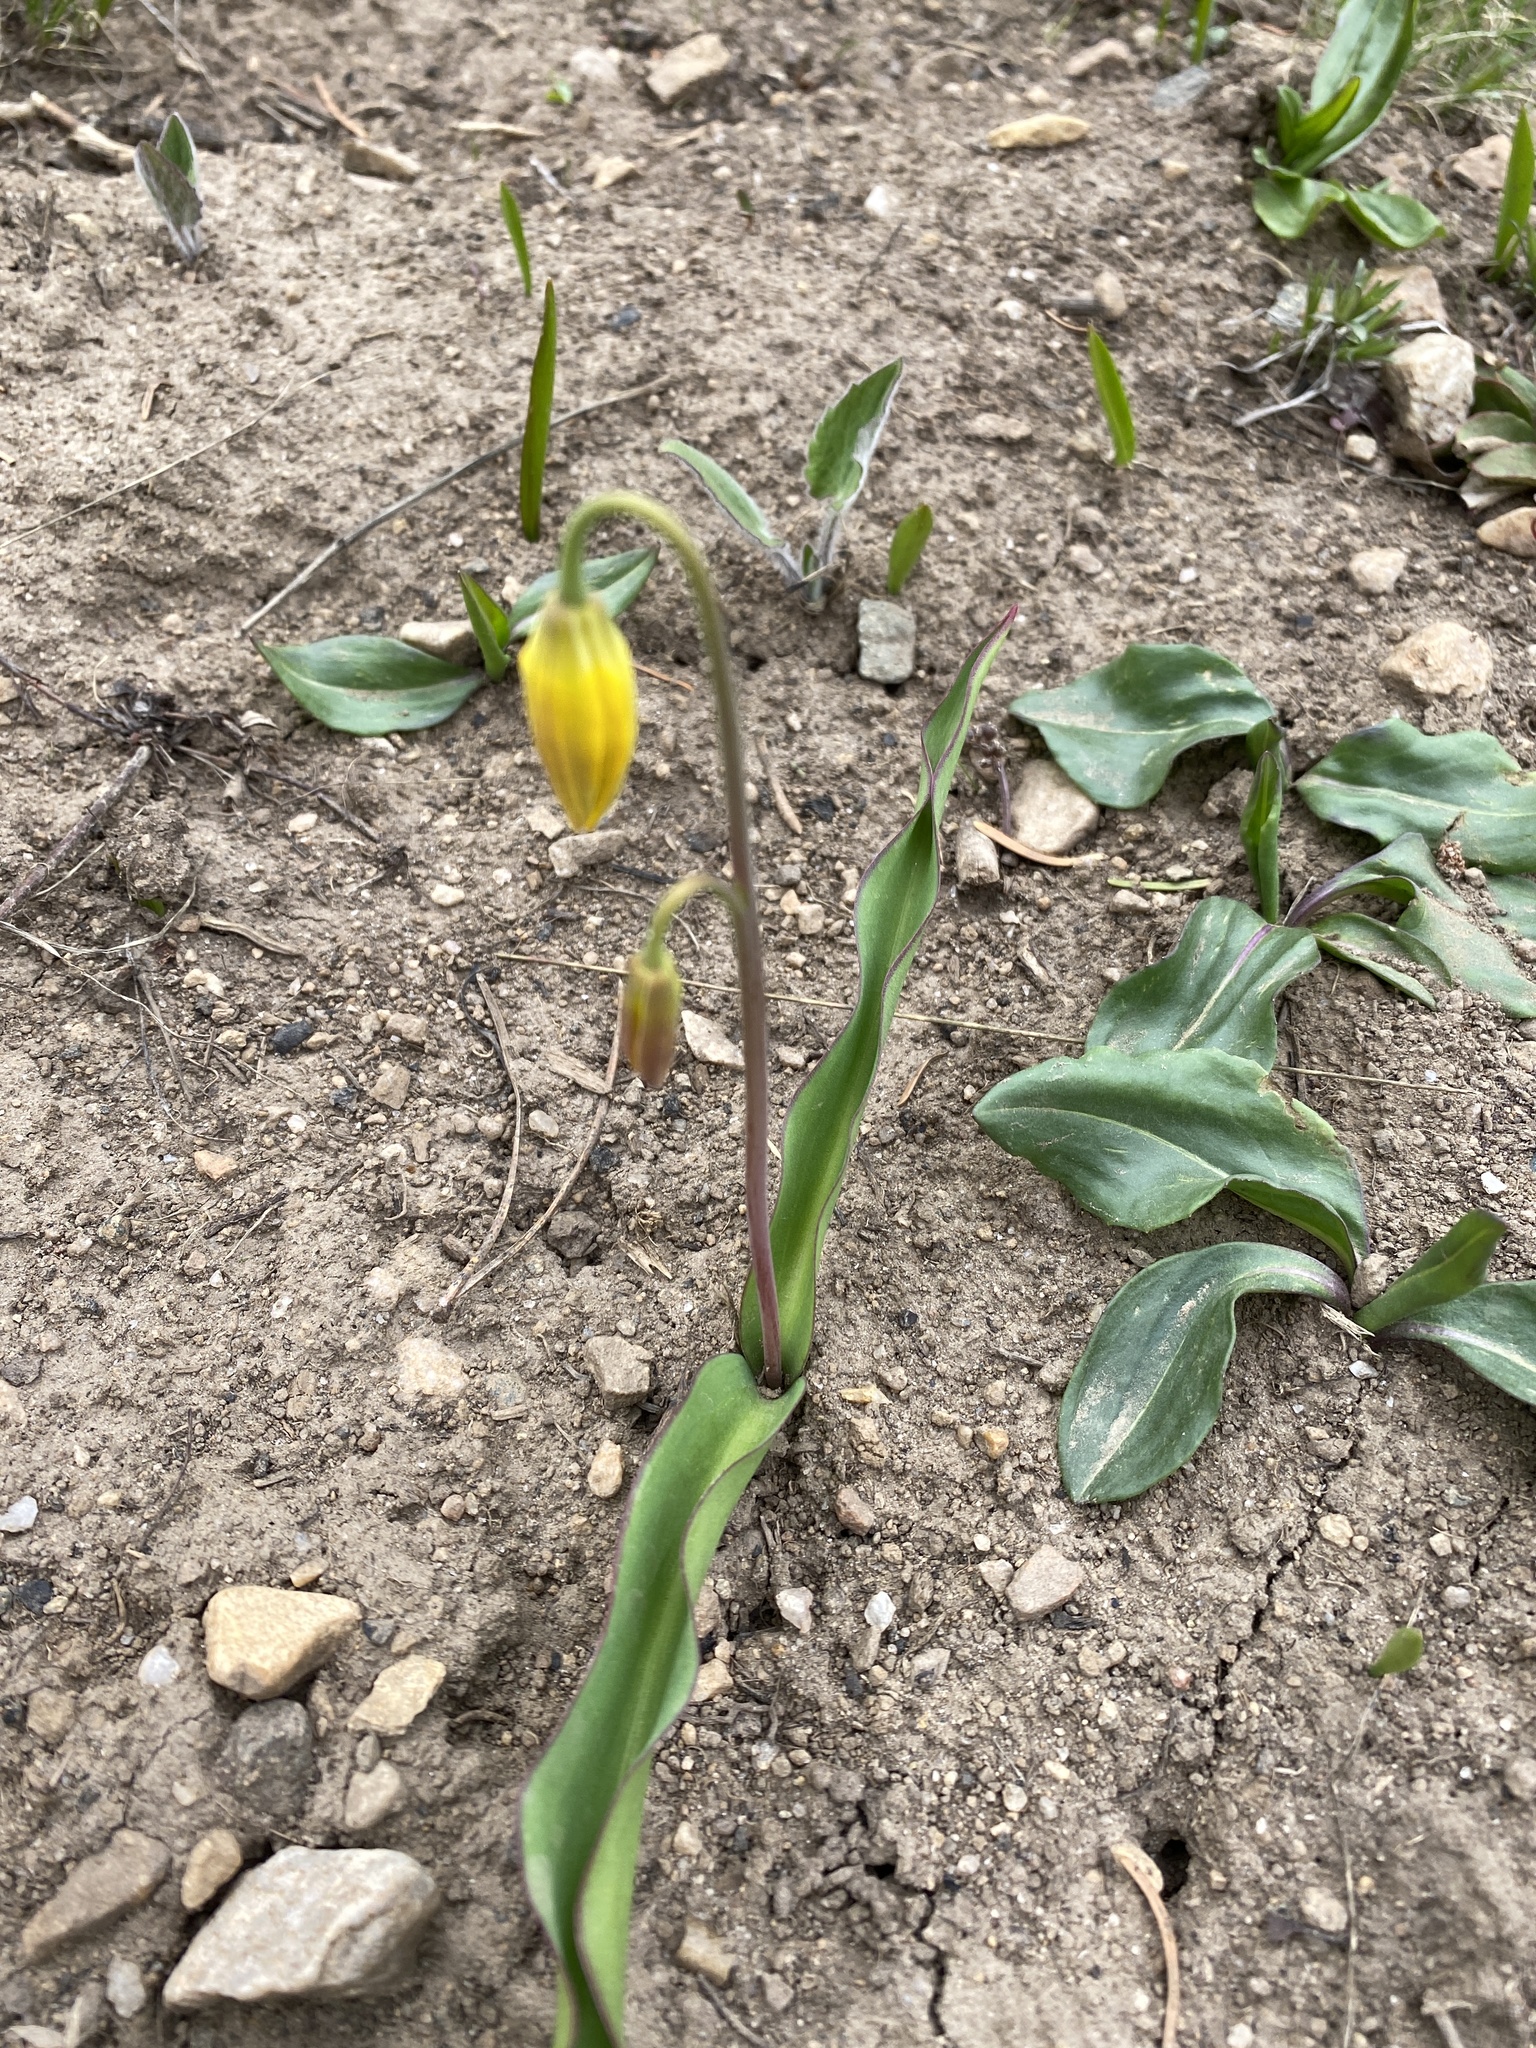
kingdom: Plantae
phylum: Tracheophyta
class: Liliopsida
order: Liliales
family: Liliaceae
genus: Erythronium
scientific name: Erythronium grandiflorum
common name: Avalanche-lily
